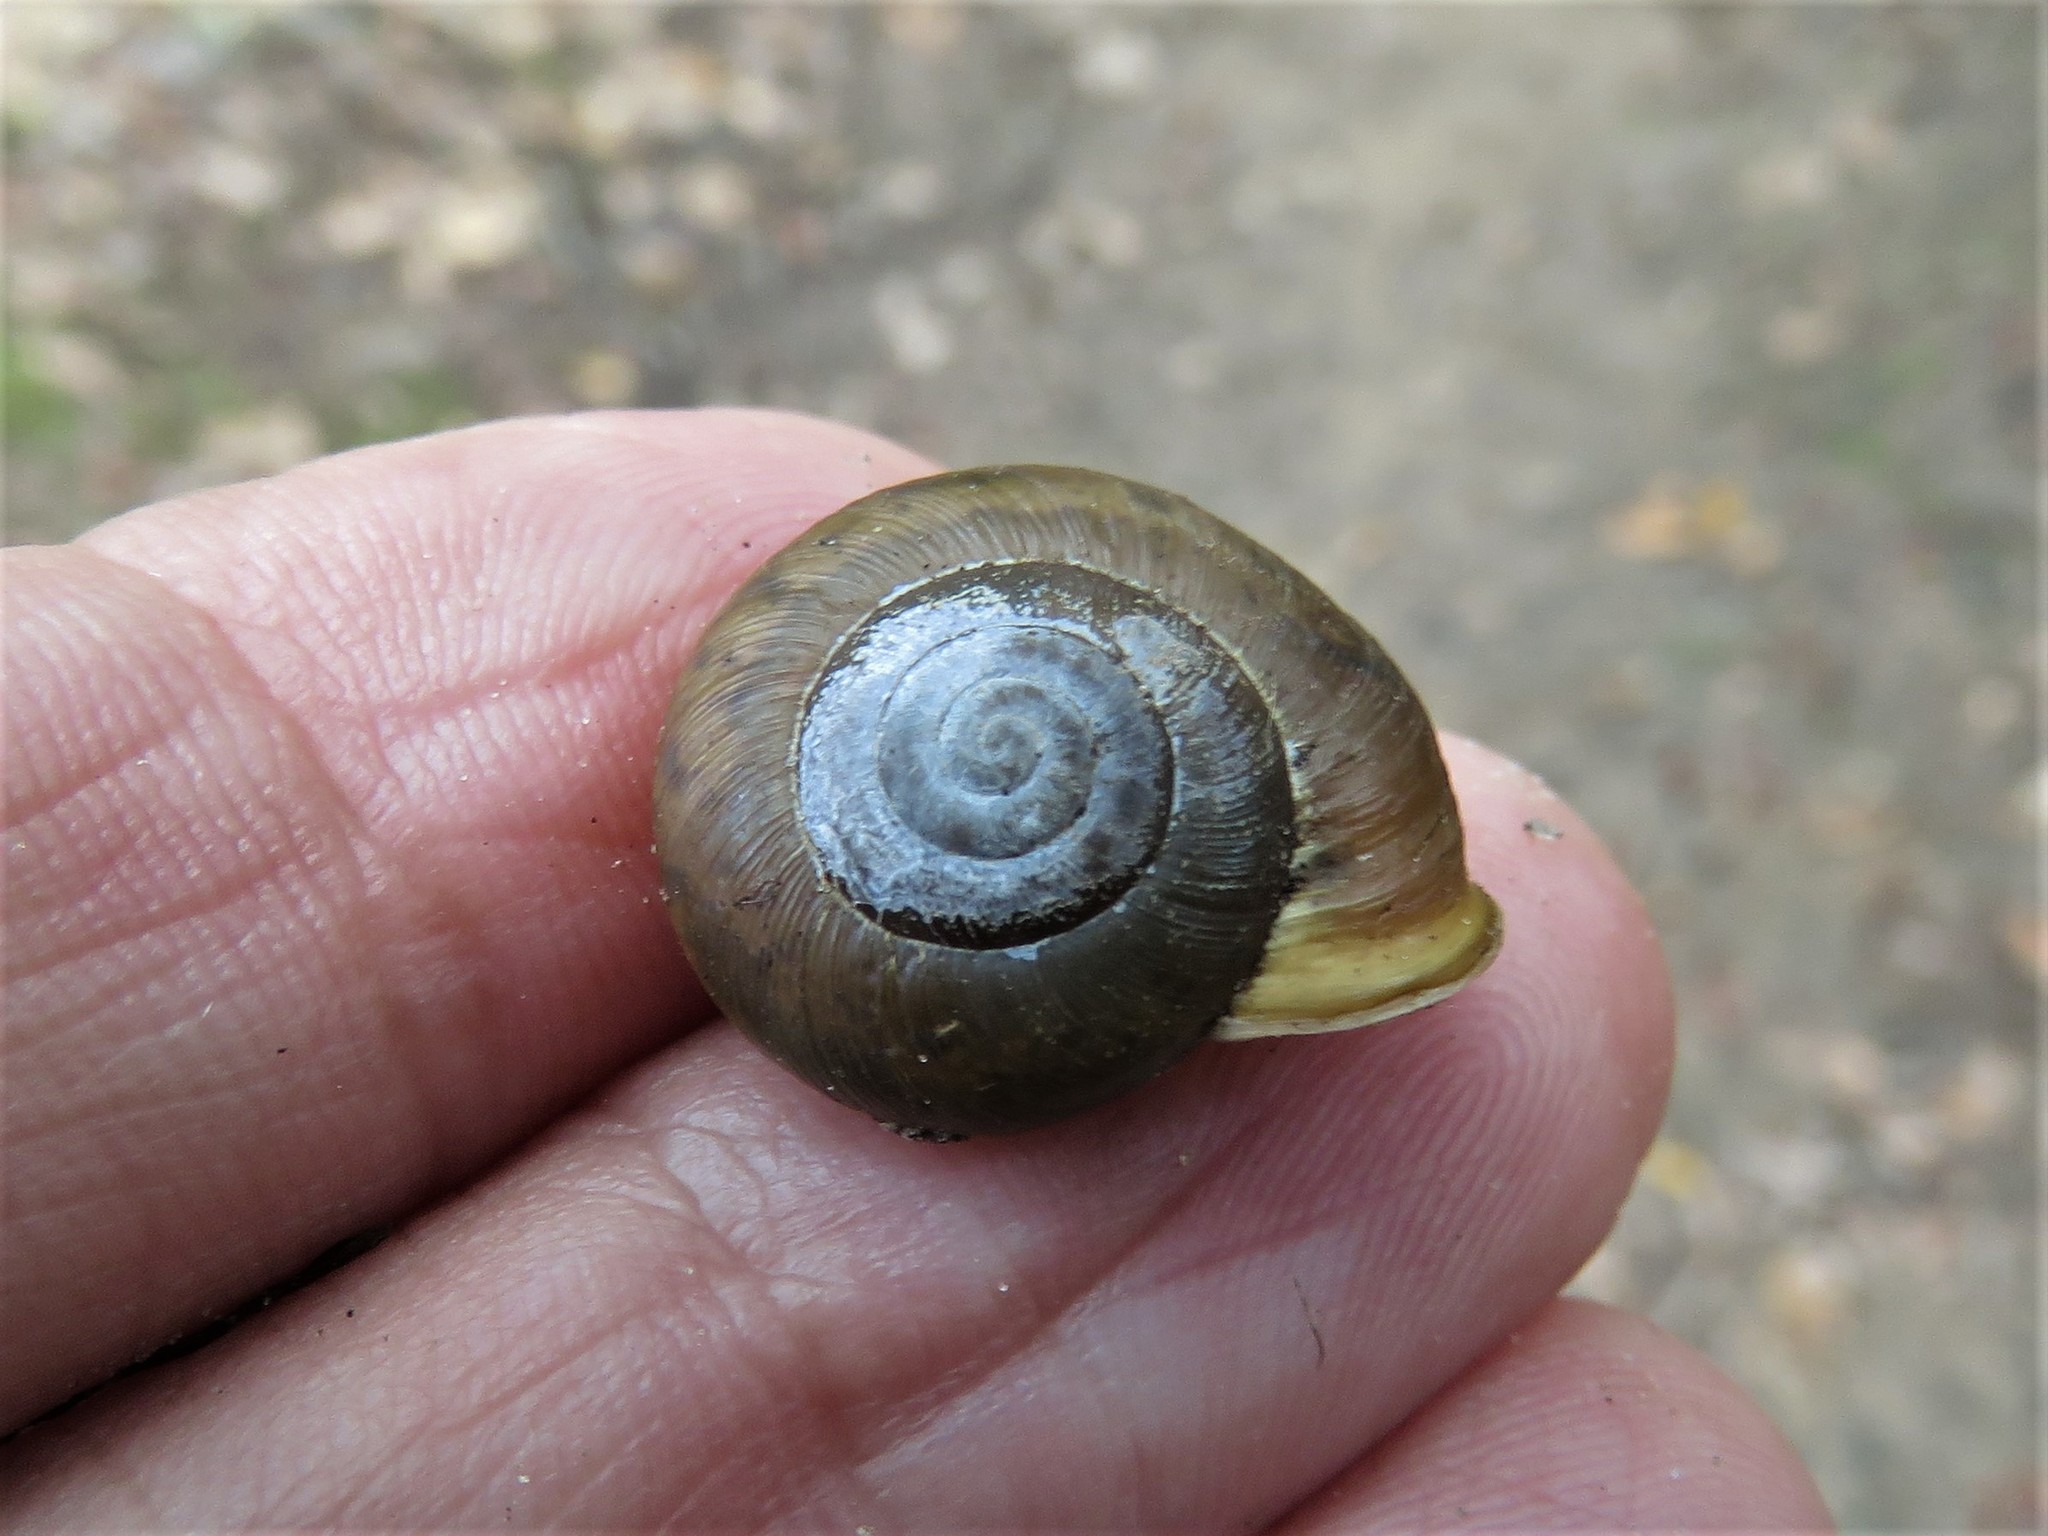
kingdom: Animalia
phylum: Mollusca
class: Gastropoda
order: Stylommatophora
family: Polygyridae
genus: Mesodon
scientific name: Mesodon thyroidus
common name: White-lip globe
